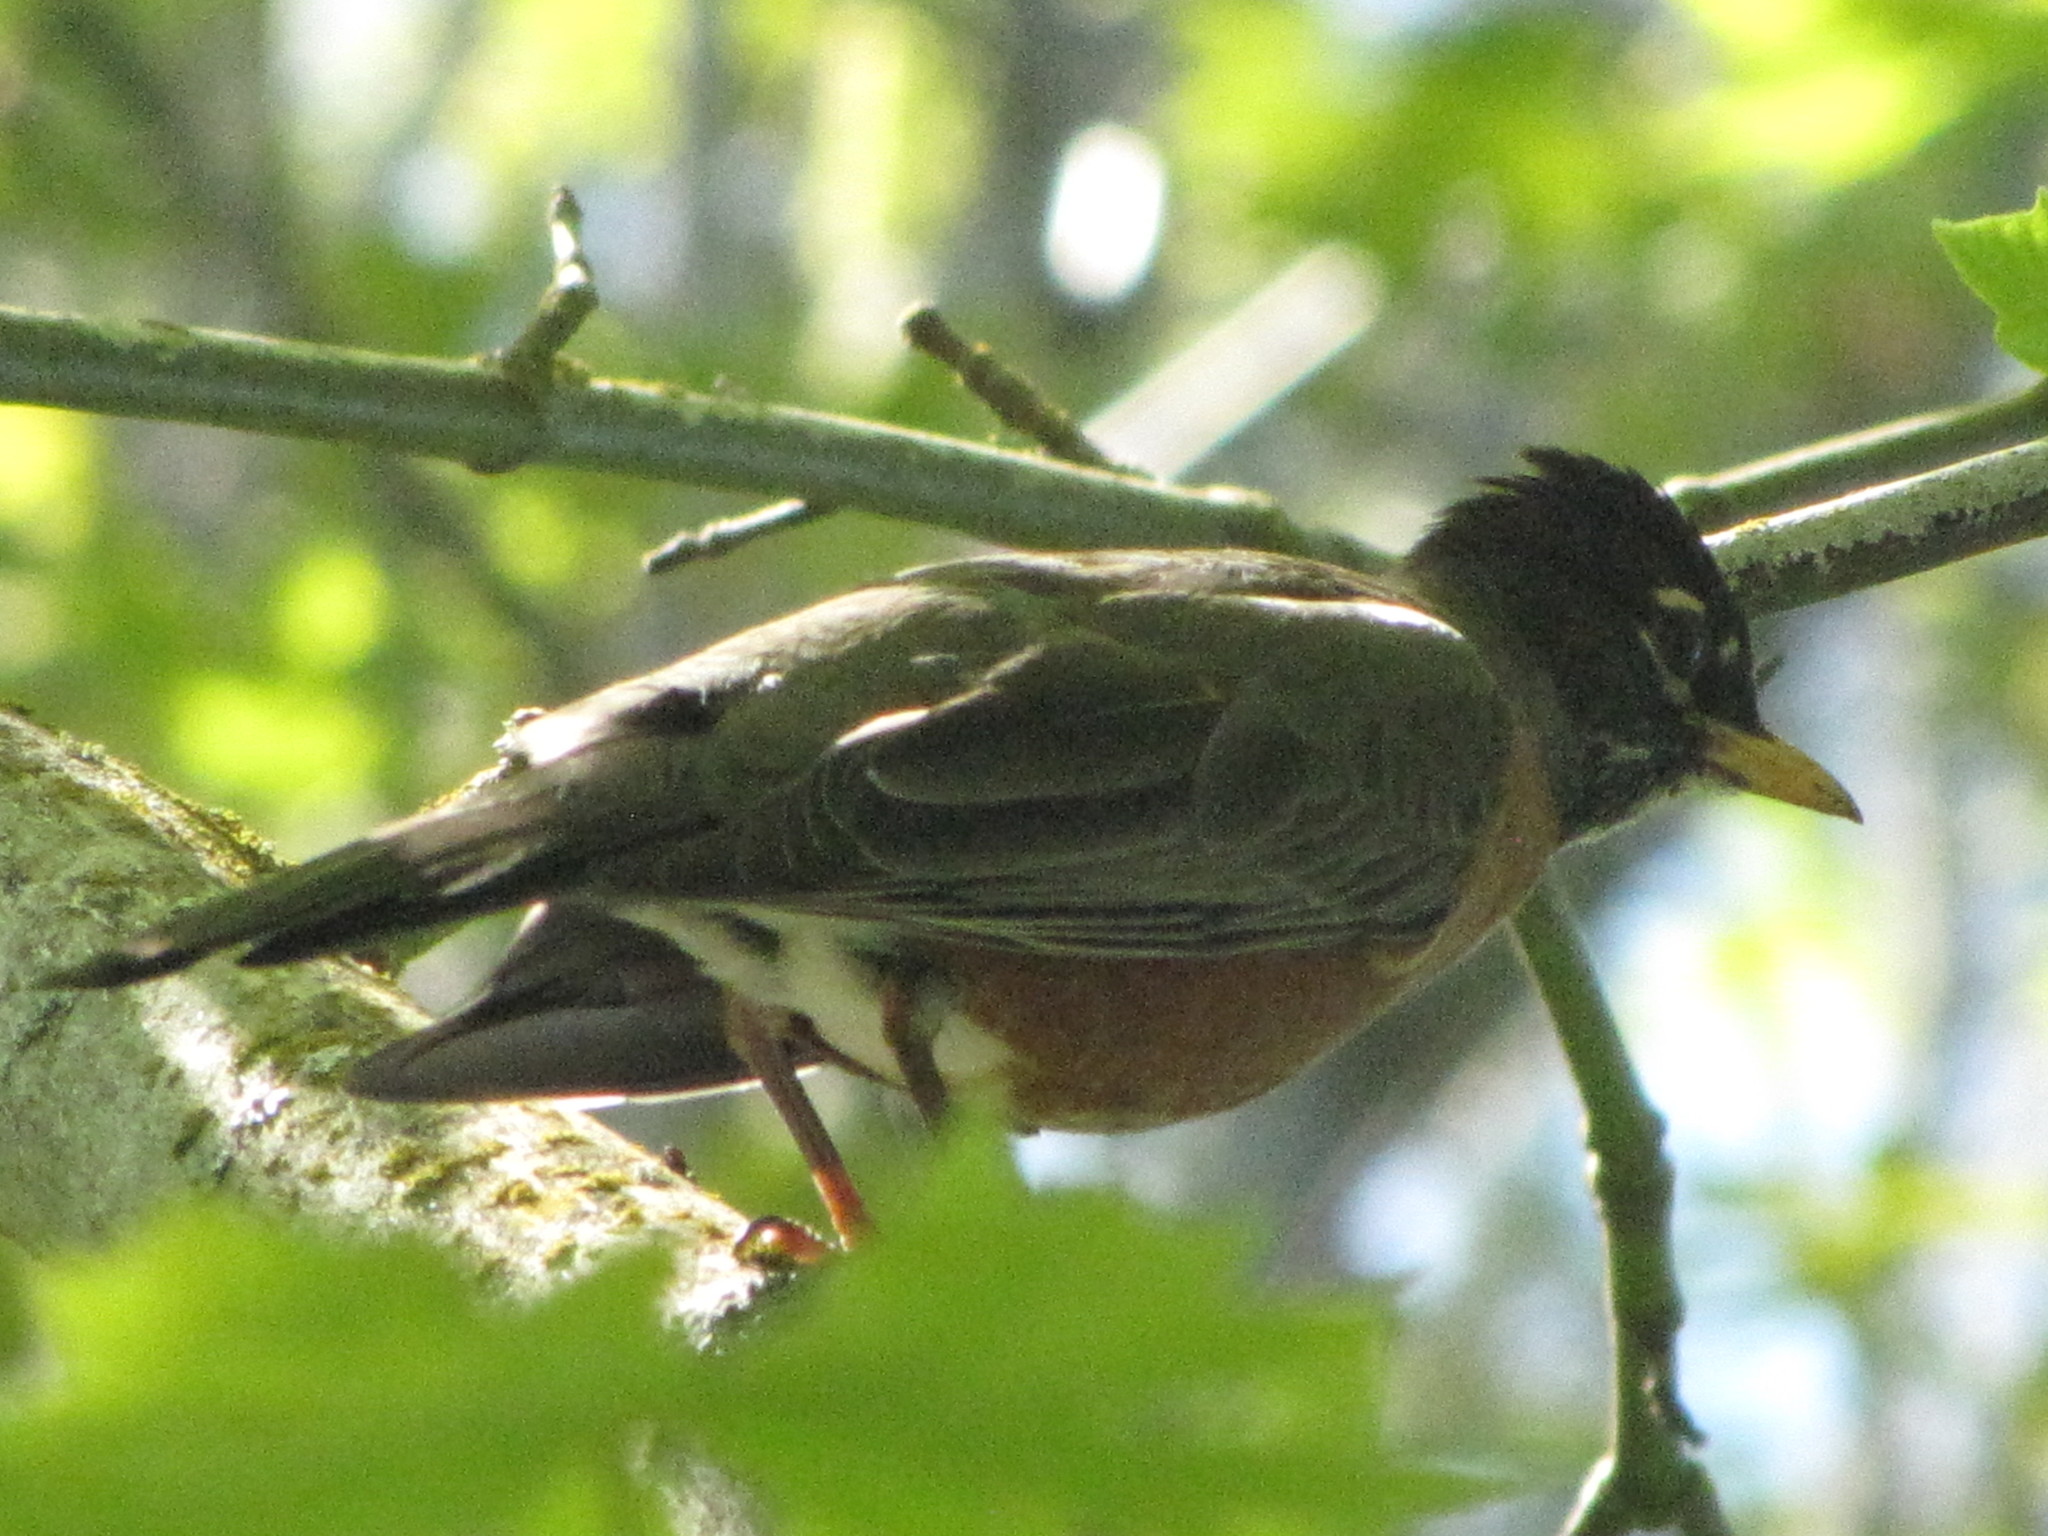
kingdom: Animalia
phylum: Chordata
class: Aves
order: Passeriformes
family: Turdidae
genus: Turdus
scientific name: Turdus migratorius
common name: American robin
